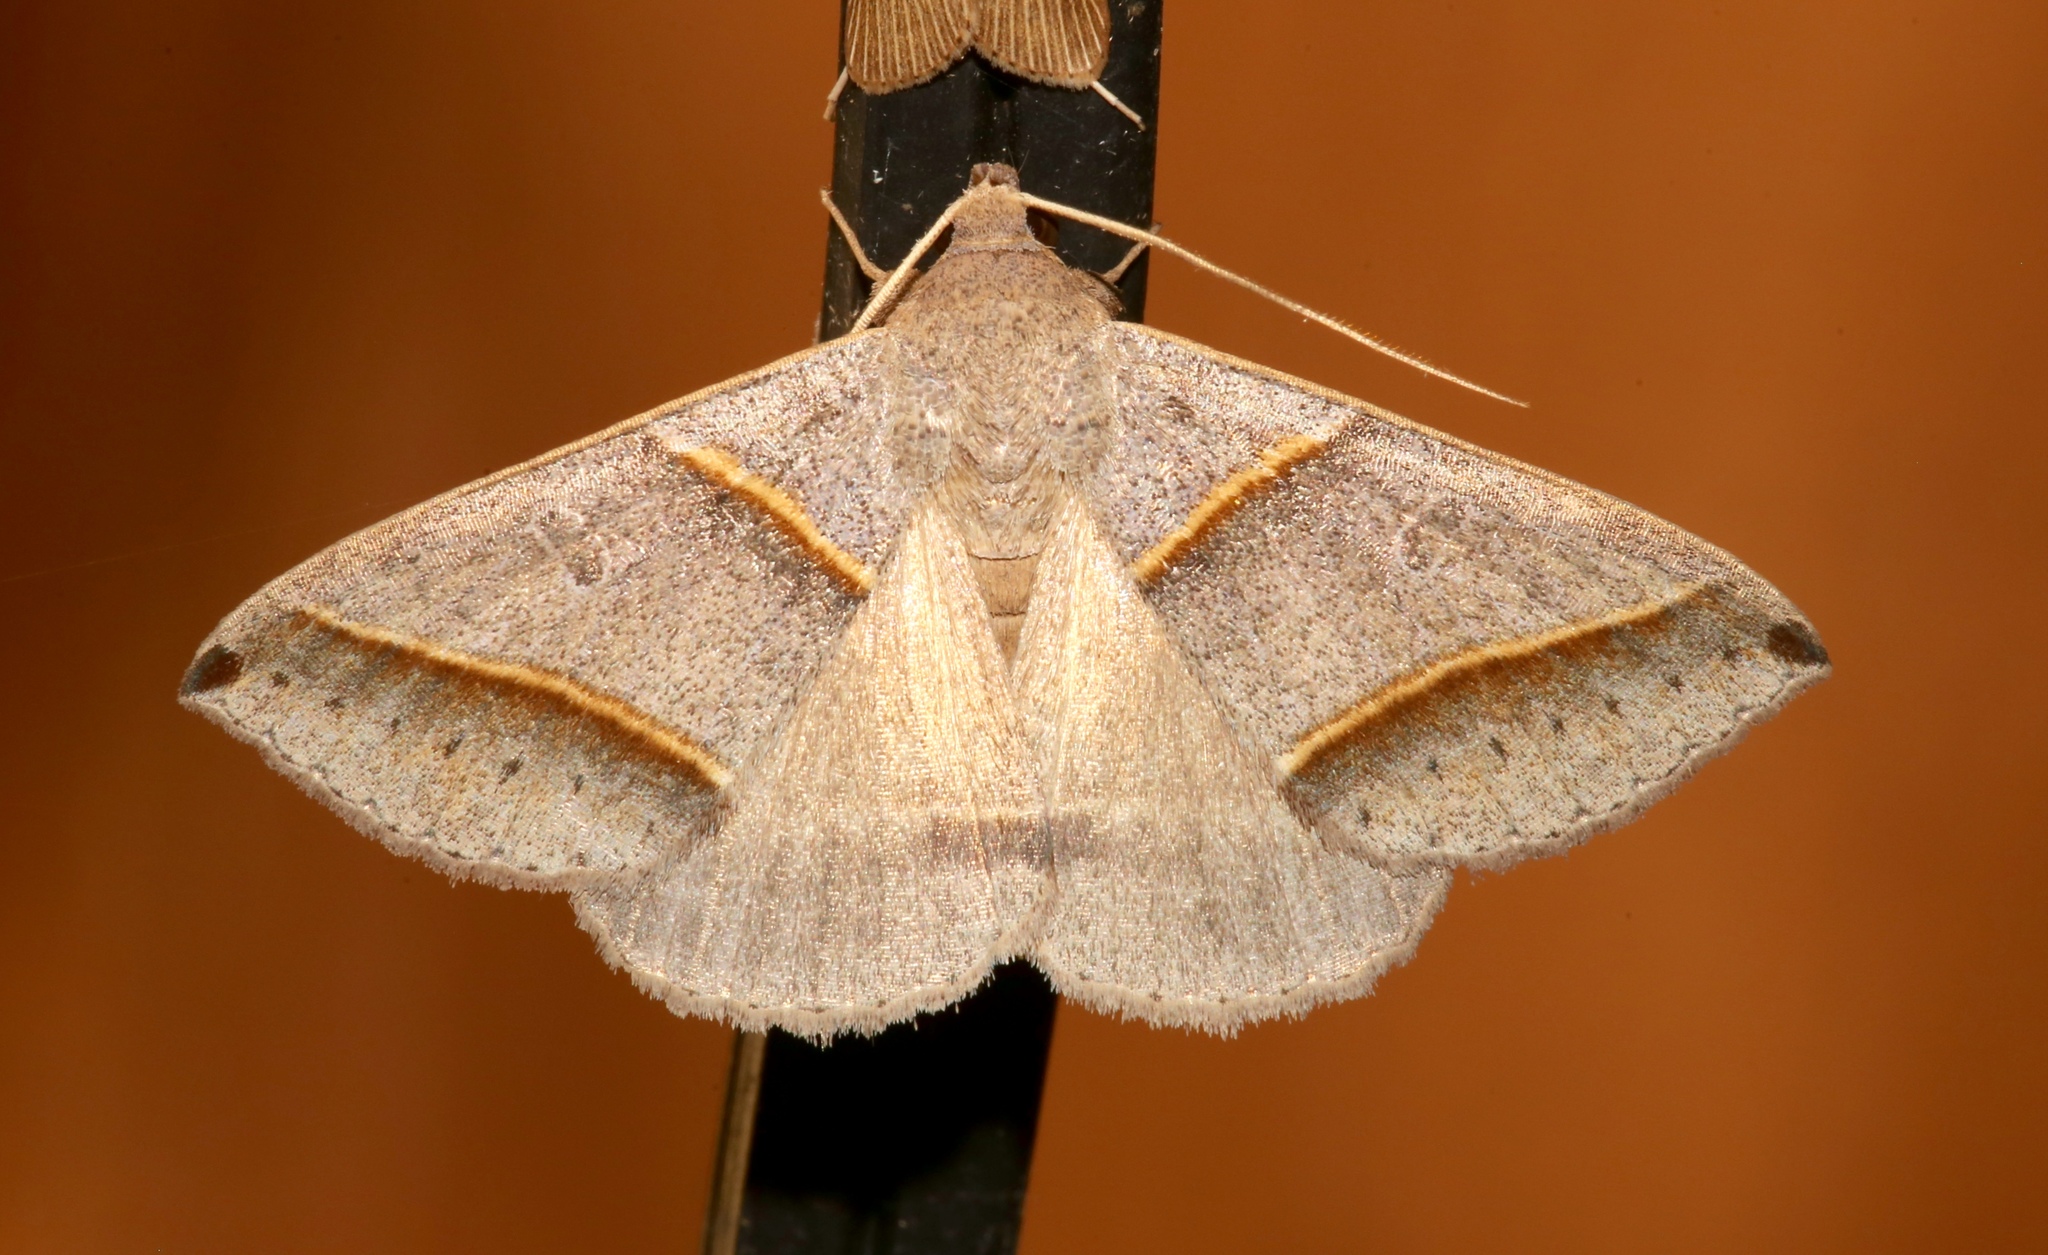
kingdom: Animalia
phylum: Arthropoda
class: Insecta
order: Lepidoptera
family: Erebidae
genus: Ptichodis
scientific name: Ptichodis vinculum
